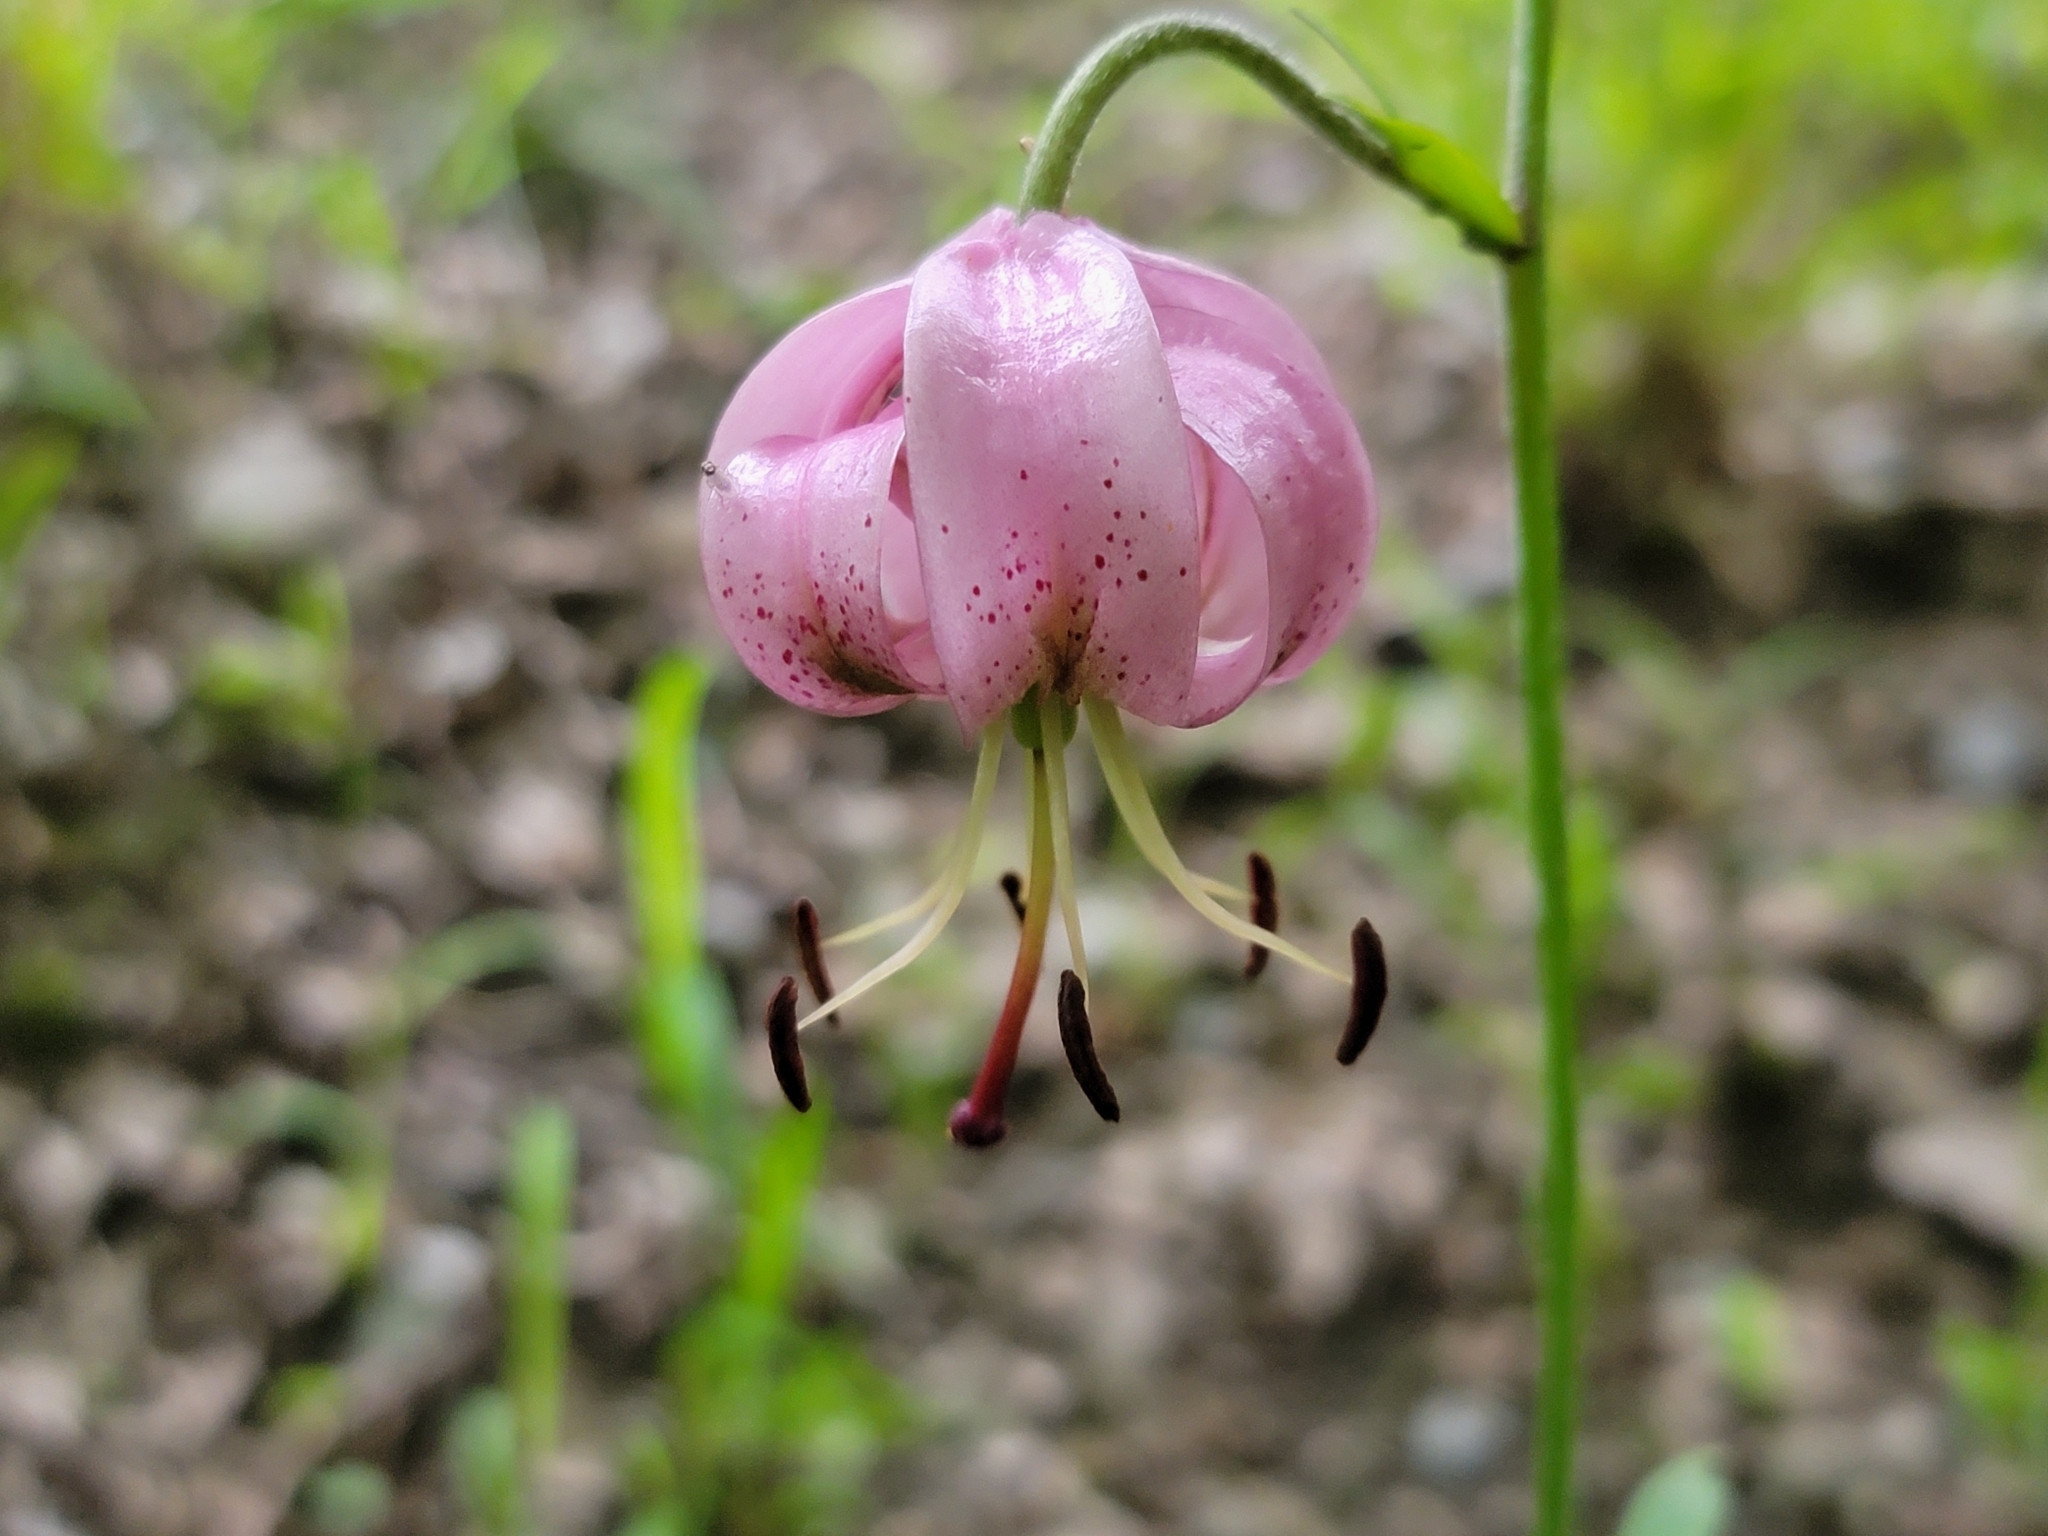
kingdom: Plantae
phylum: Tracheophyta
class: Liliopsida
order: Liliales
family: Liliaceae
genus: Lilium
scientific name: Lilium martagon
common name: Martagon lily
